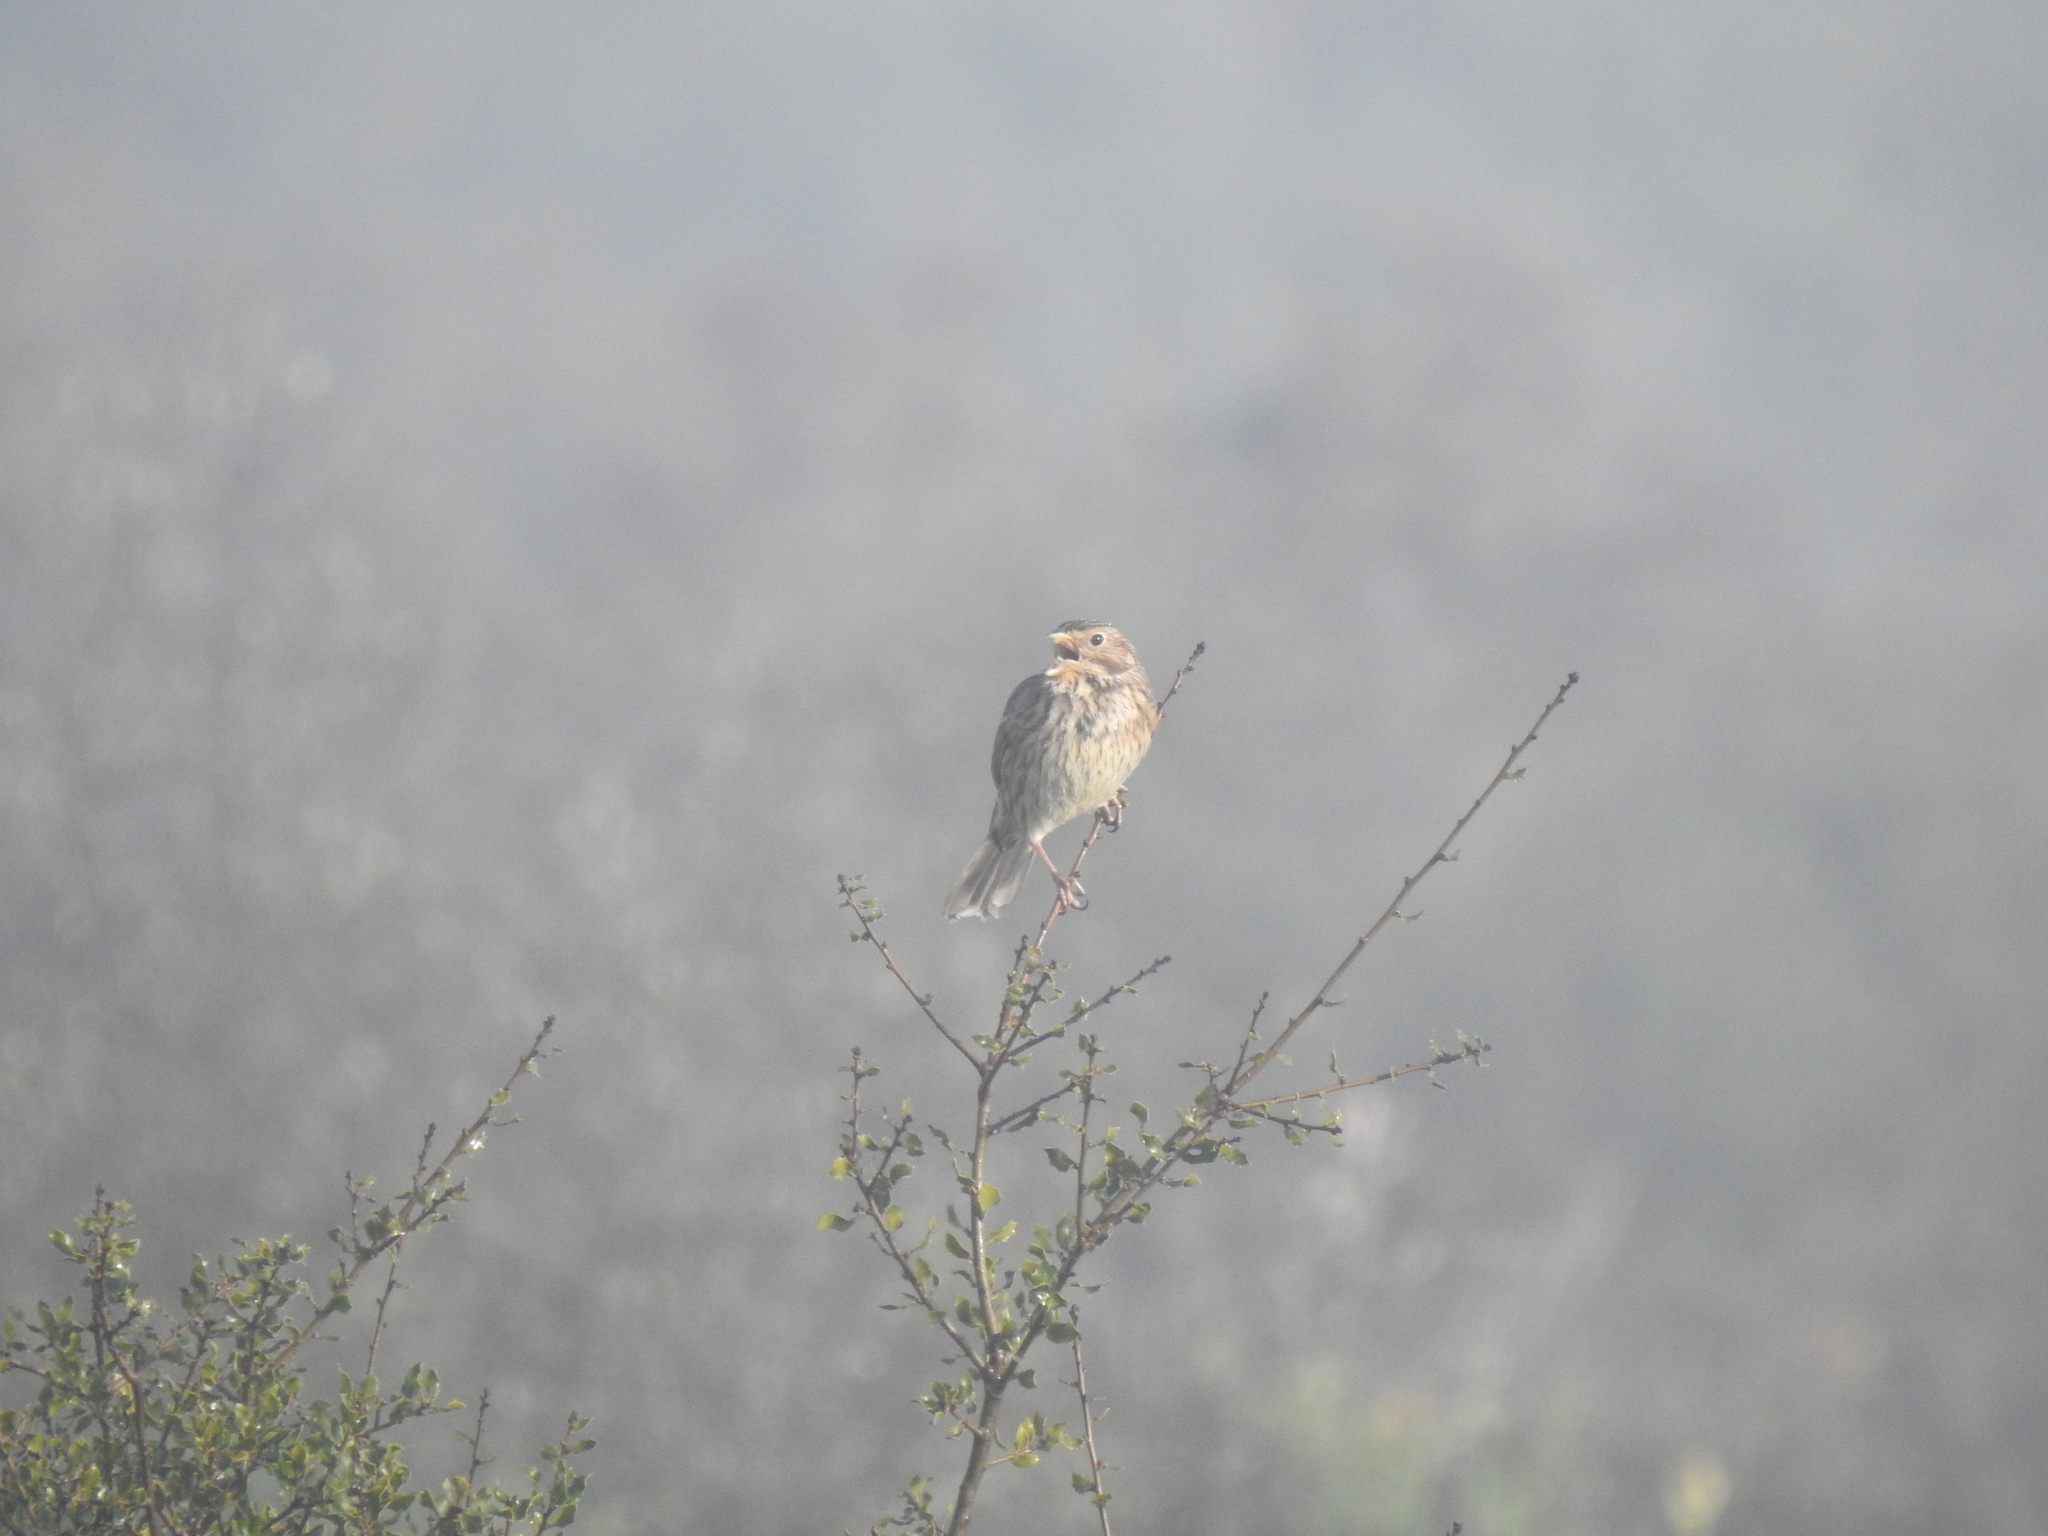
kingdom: Animalia
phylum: Chordata
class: Aves
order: Passeriformes
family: Emberizidae
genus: Emberiza
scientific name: Emberiza calandra
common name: Corn bunting
